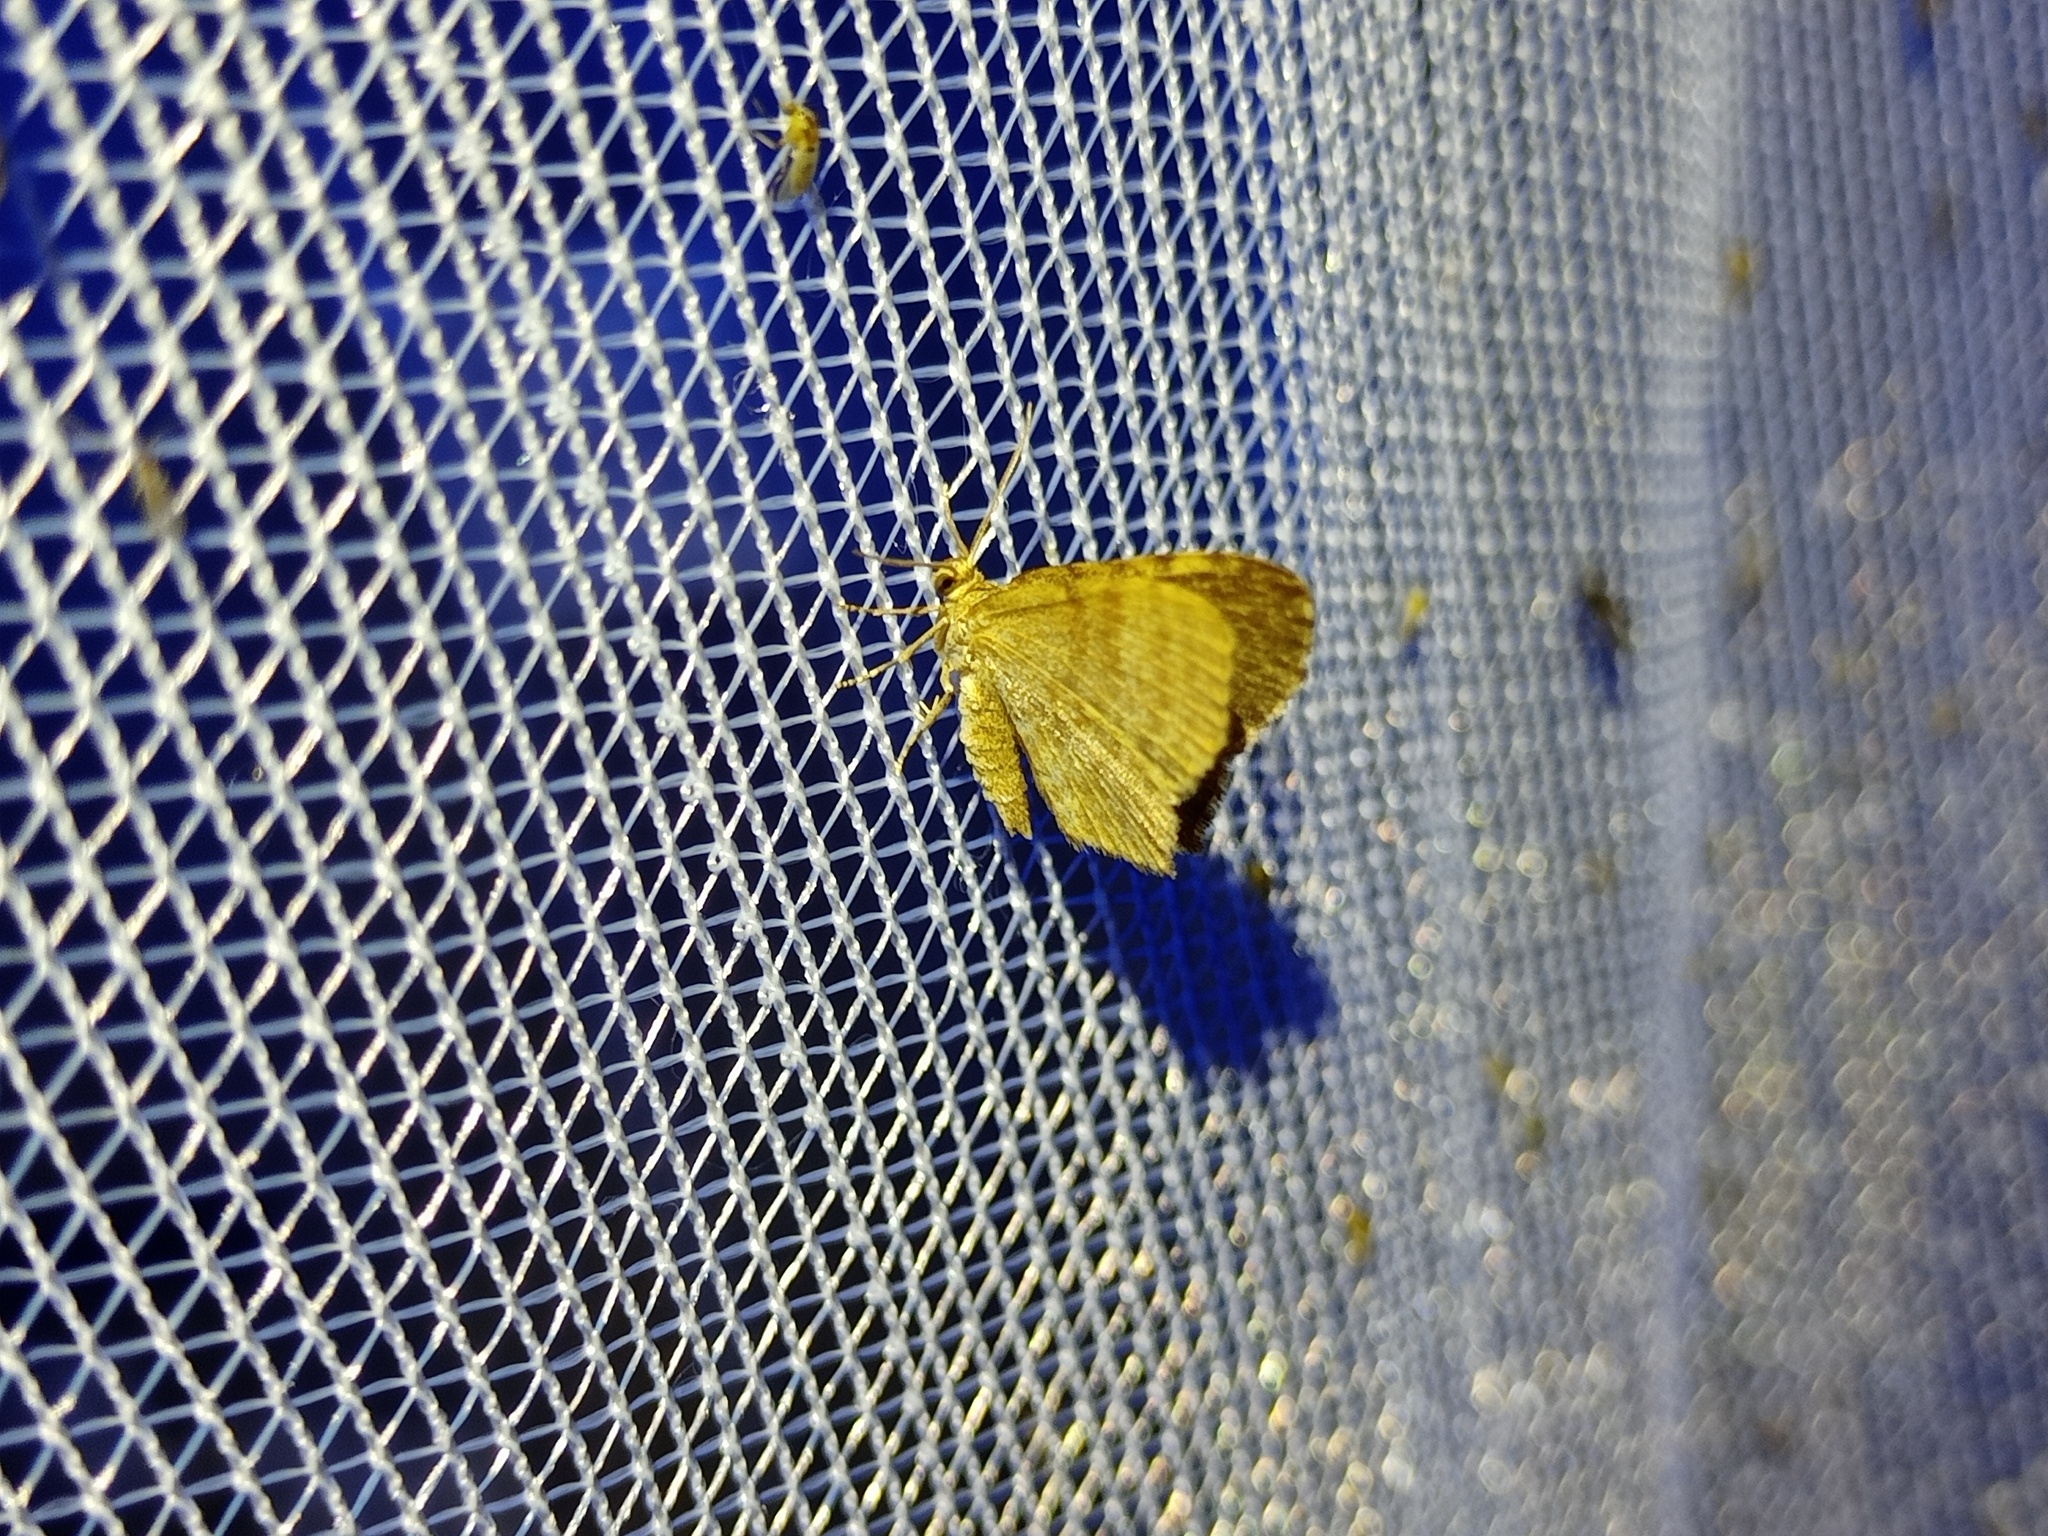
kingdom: Animalia
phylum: Arthropoda
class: Insecta
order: Lepidoptera
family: Geometridae
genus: Euchoeca
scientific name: Euchoeca nebulata
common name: Dingy shell
